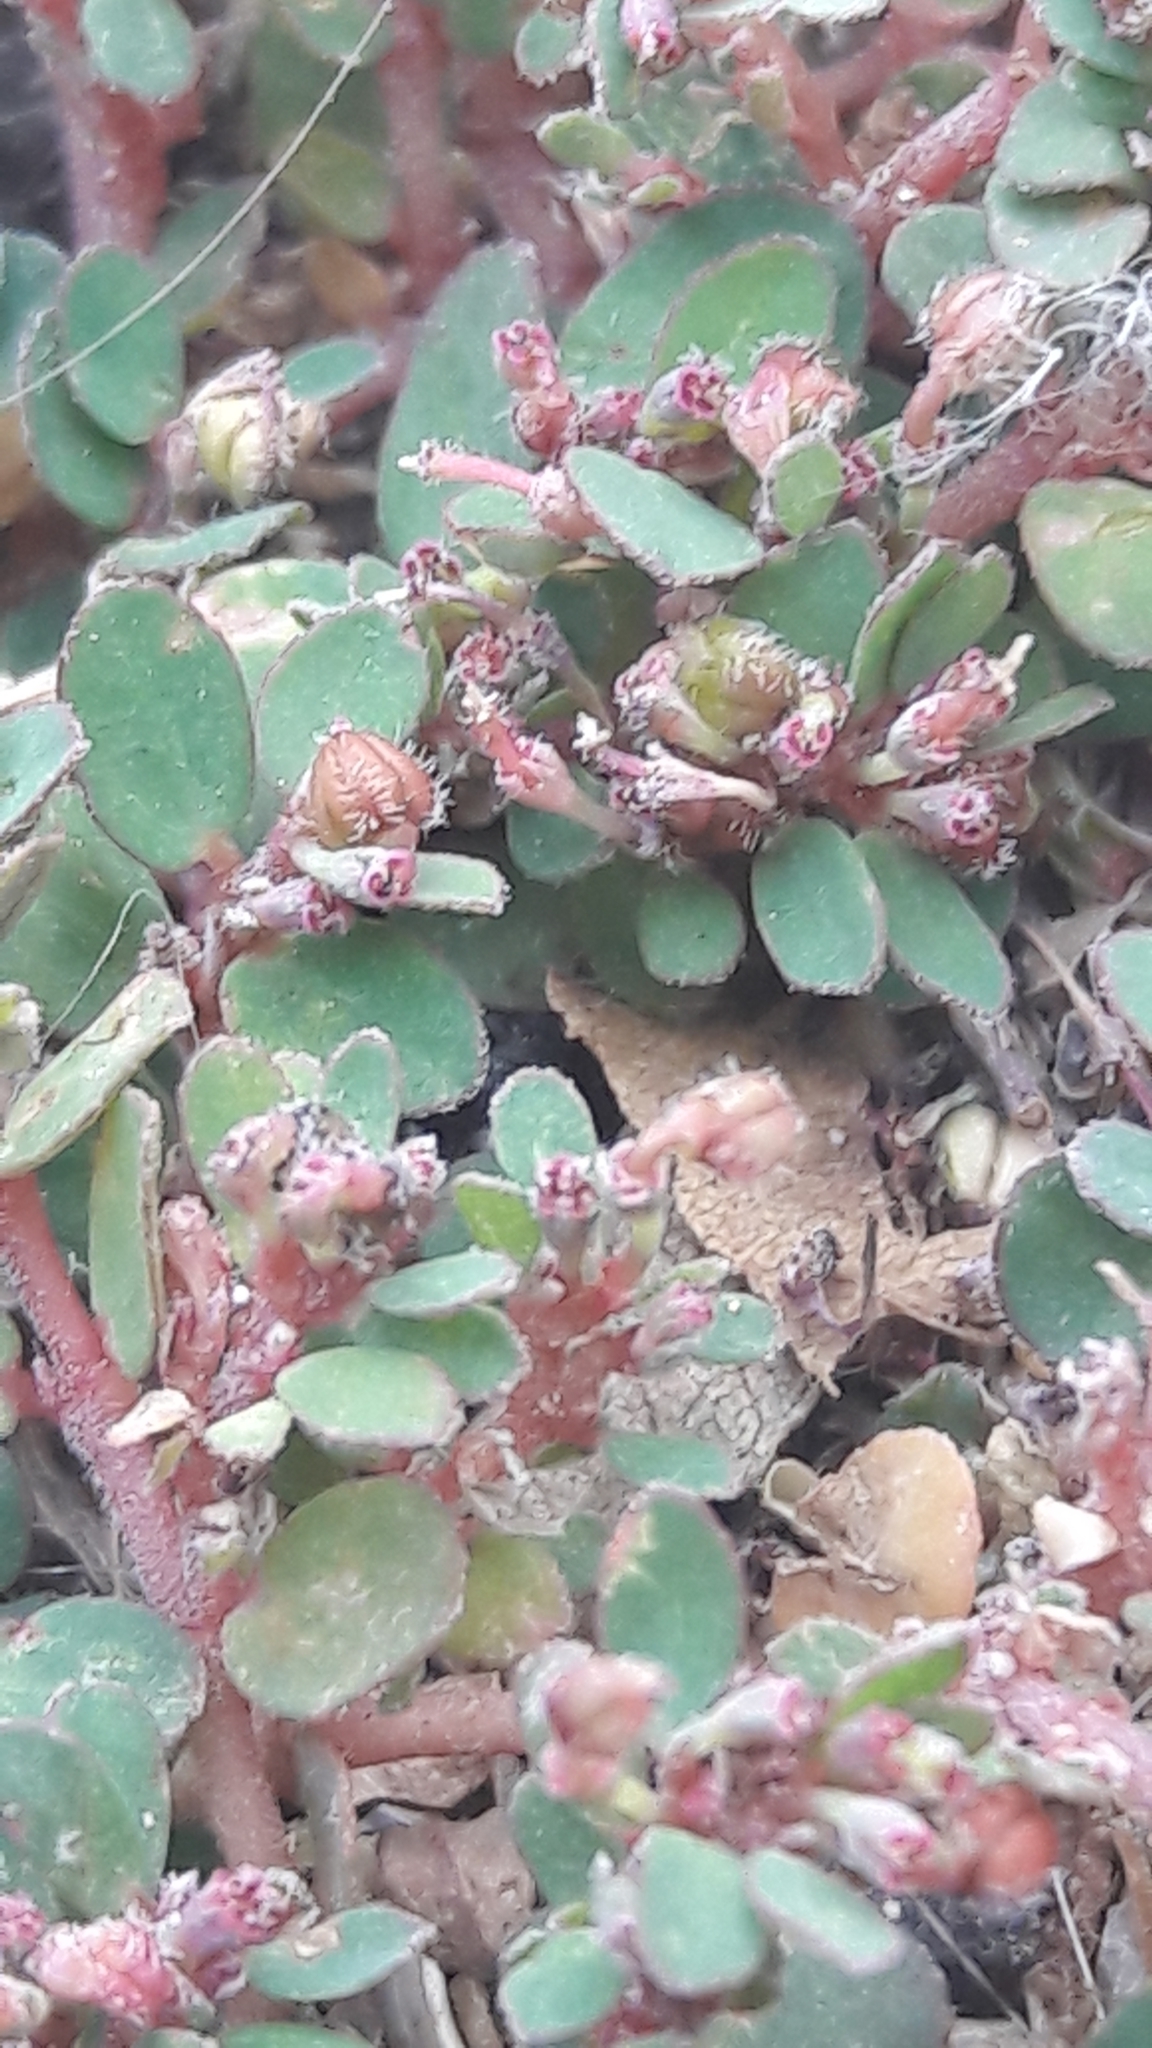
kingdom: Plantae
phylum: Tracheophyta
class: Magnoliopsida
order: Malpighiales
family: Euphorbiaceae
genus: Euphorbia
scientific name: Euphorbia prostrata
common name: Prostrate sandmat
